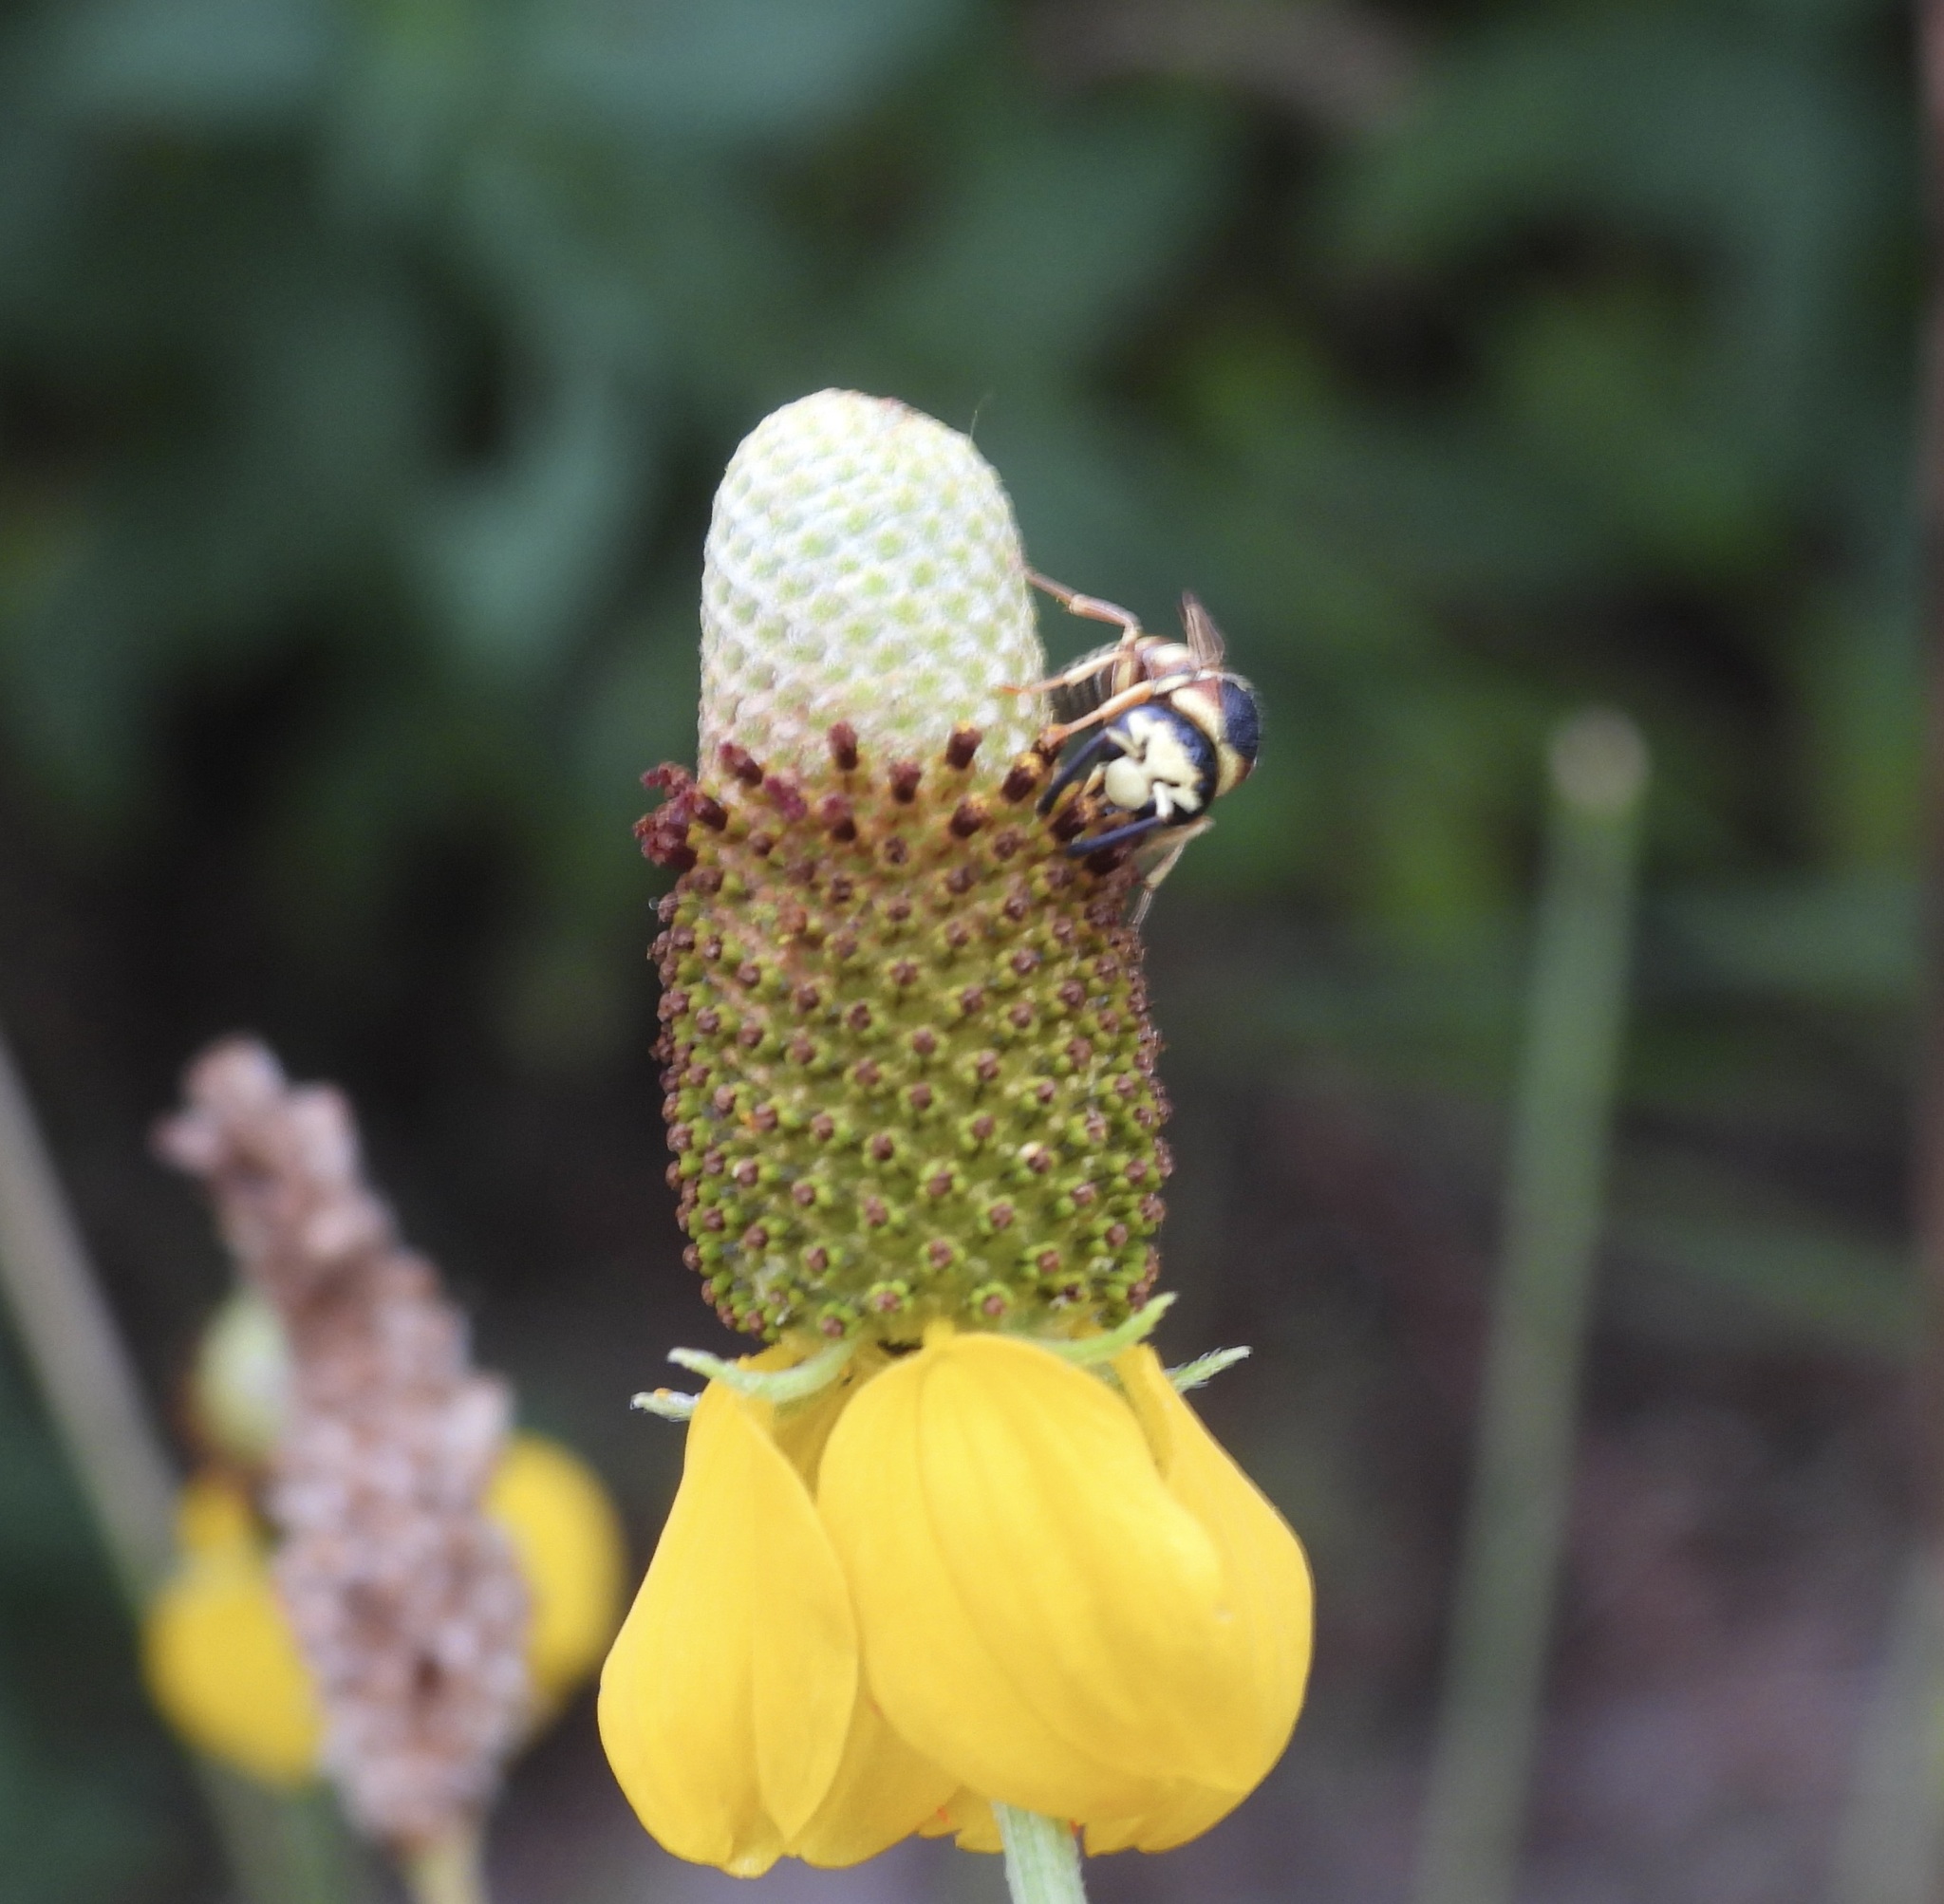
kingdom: Animalia
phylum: Arthropoda
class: Insecta
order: Hymenoptera
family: Eumenidae
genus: Euodynerus
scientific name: Euodynerus annulatus
